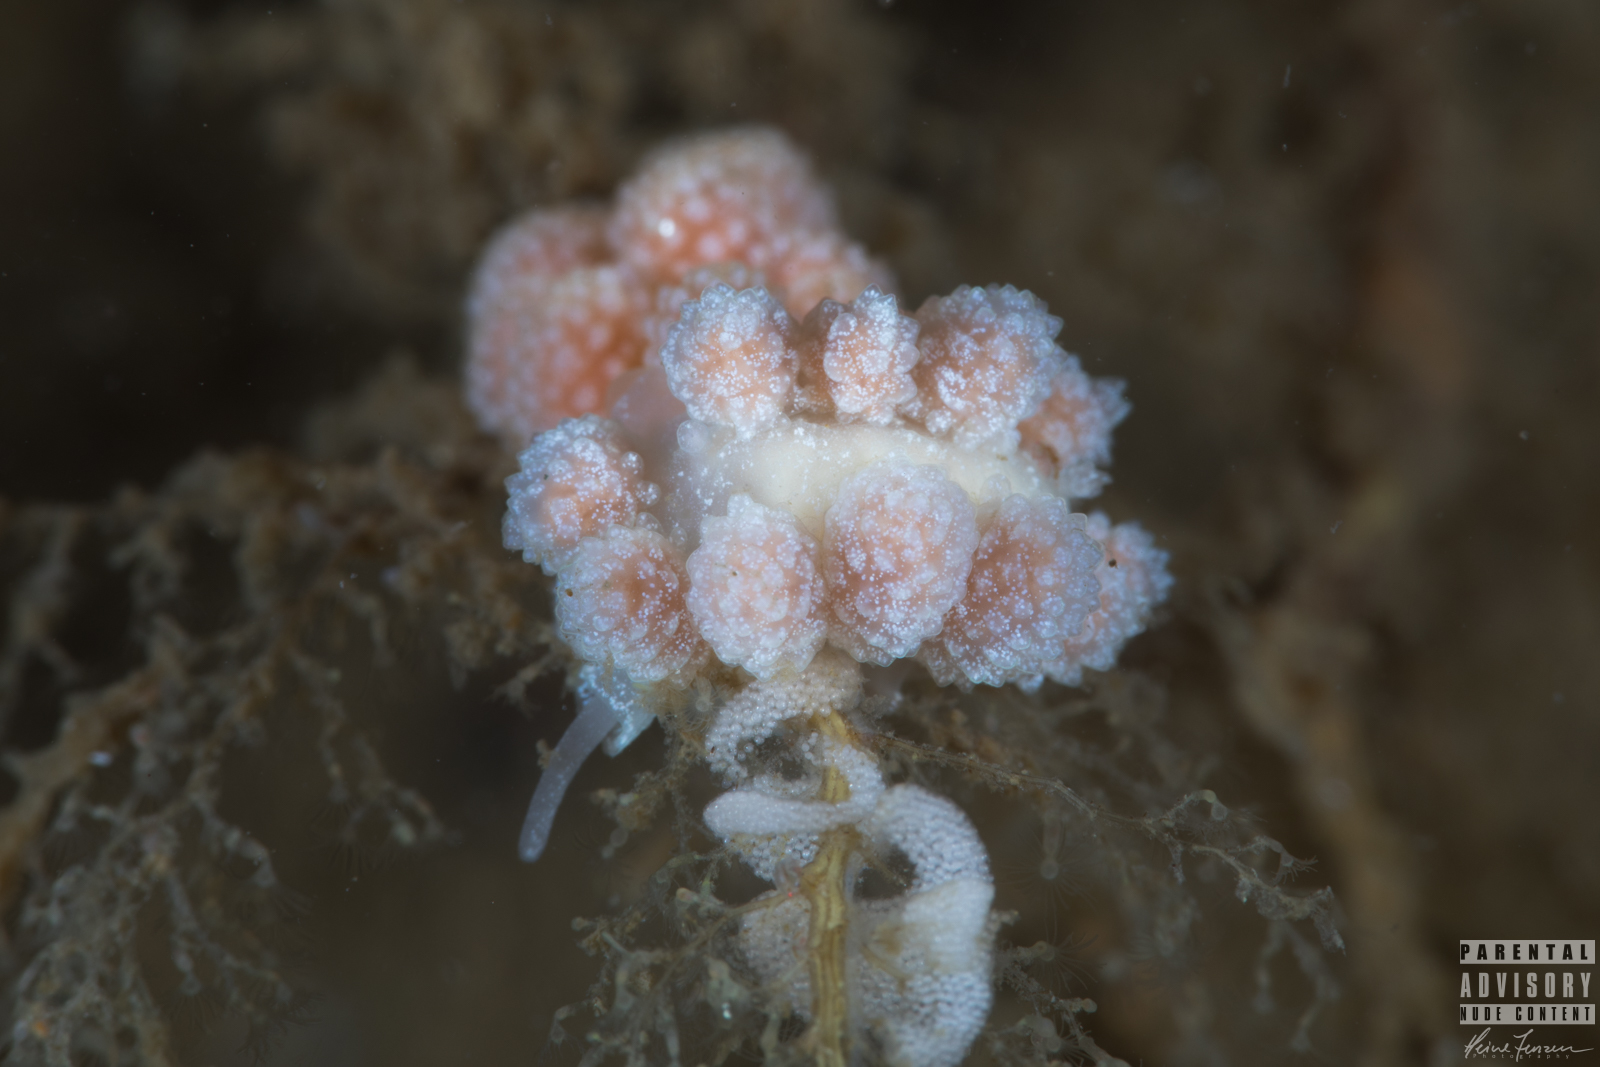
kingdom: Animalia
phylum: Mollusca
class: Gastropoda
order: Nudibranchia
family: Dotidae
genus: Doto
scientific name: Doto fragilis
